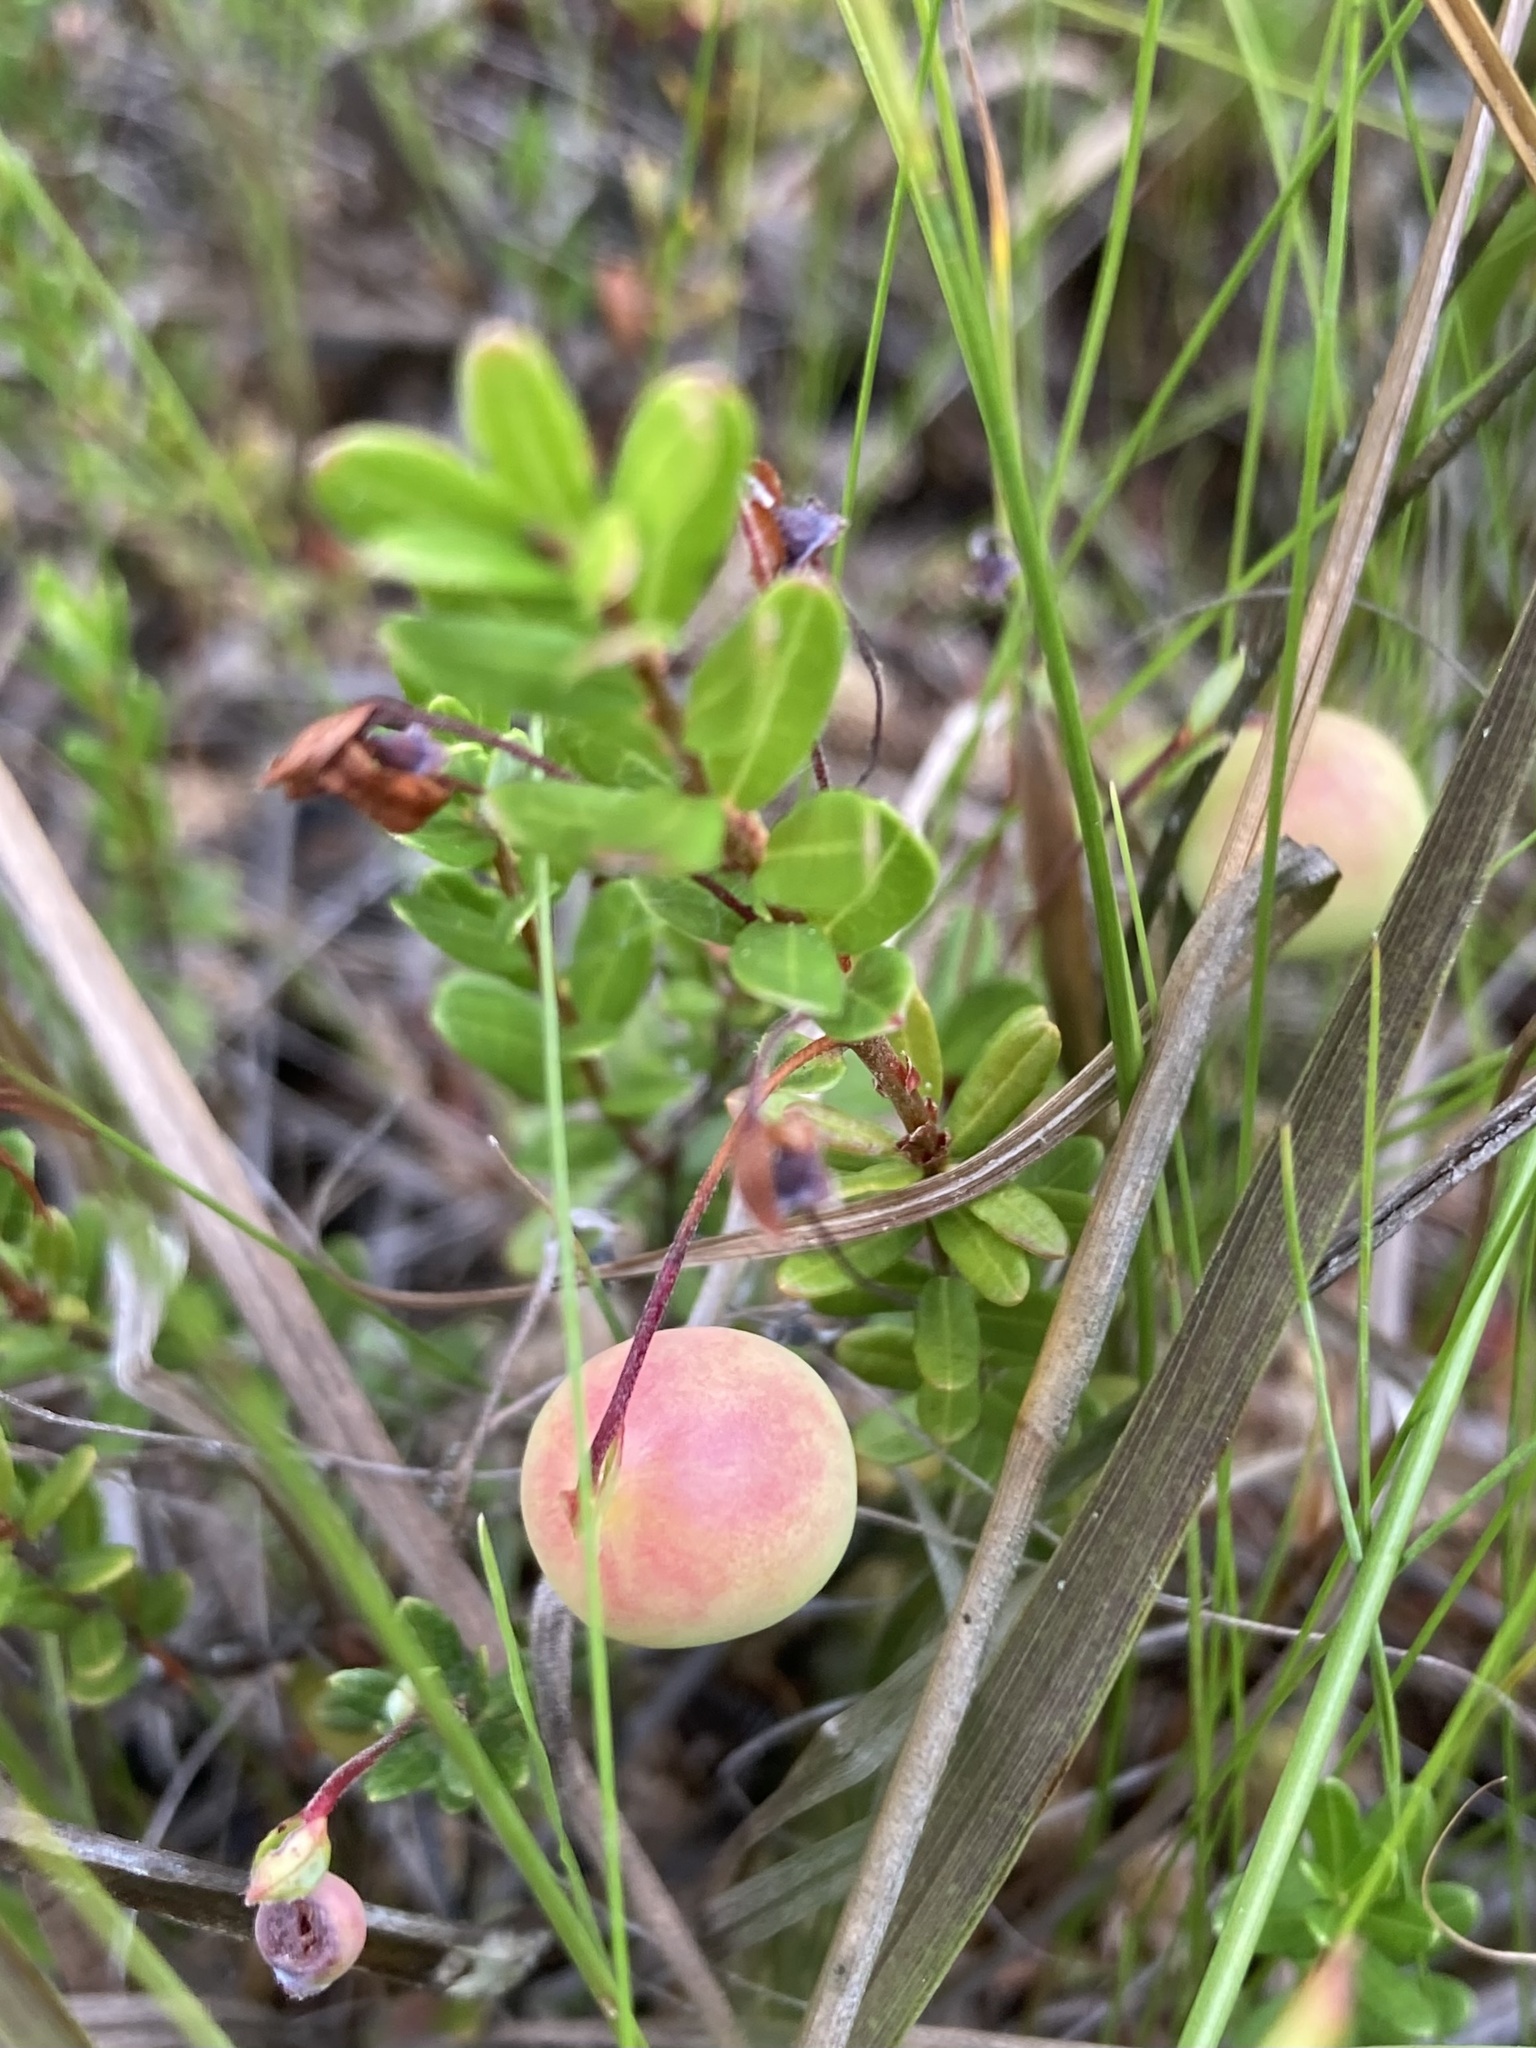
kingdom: Plantae
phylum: Tracheophyta
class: Magnoliopsida
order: Ericales
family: Ericaceae
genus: Vaccinium
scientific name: Vaccinium macrocarpon
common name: American cranberry
